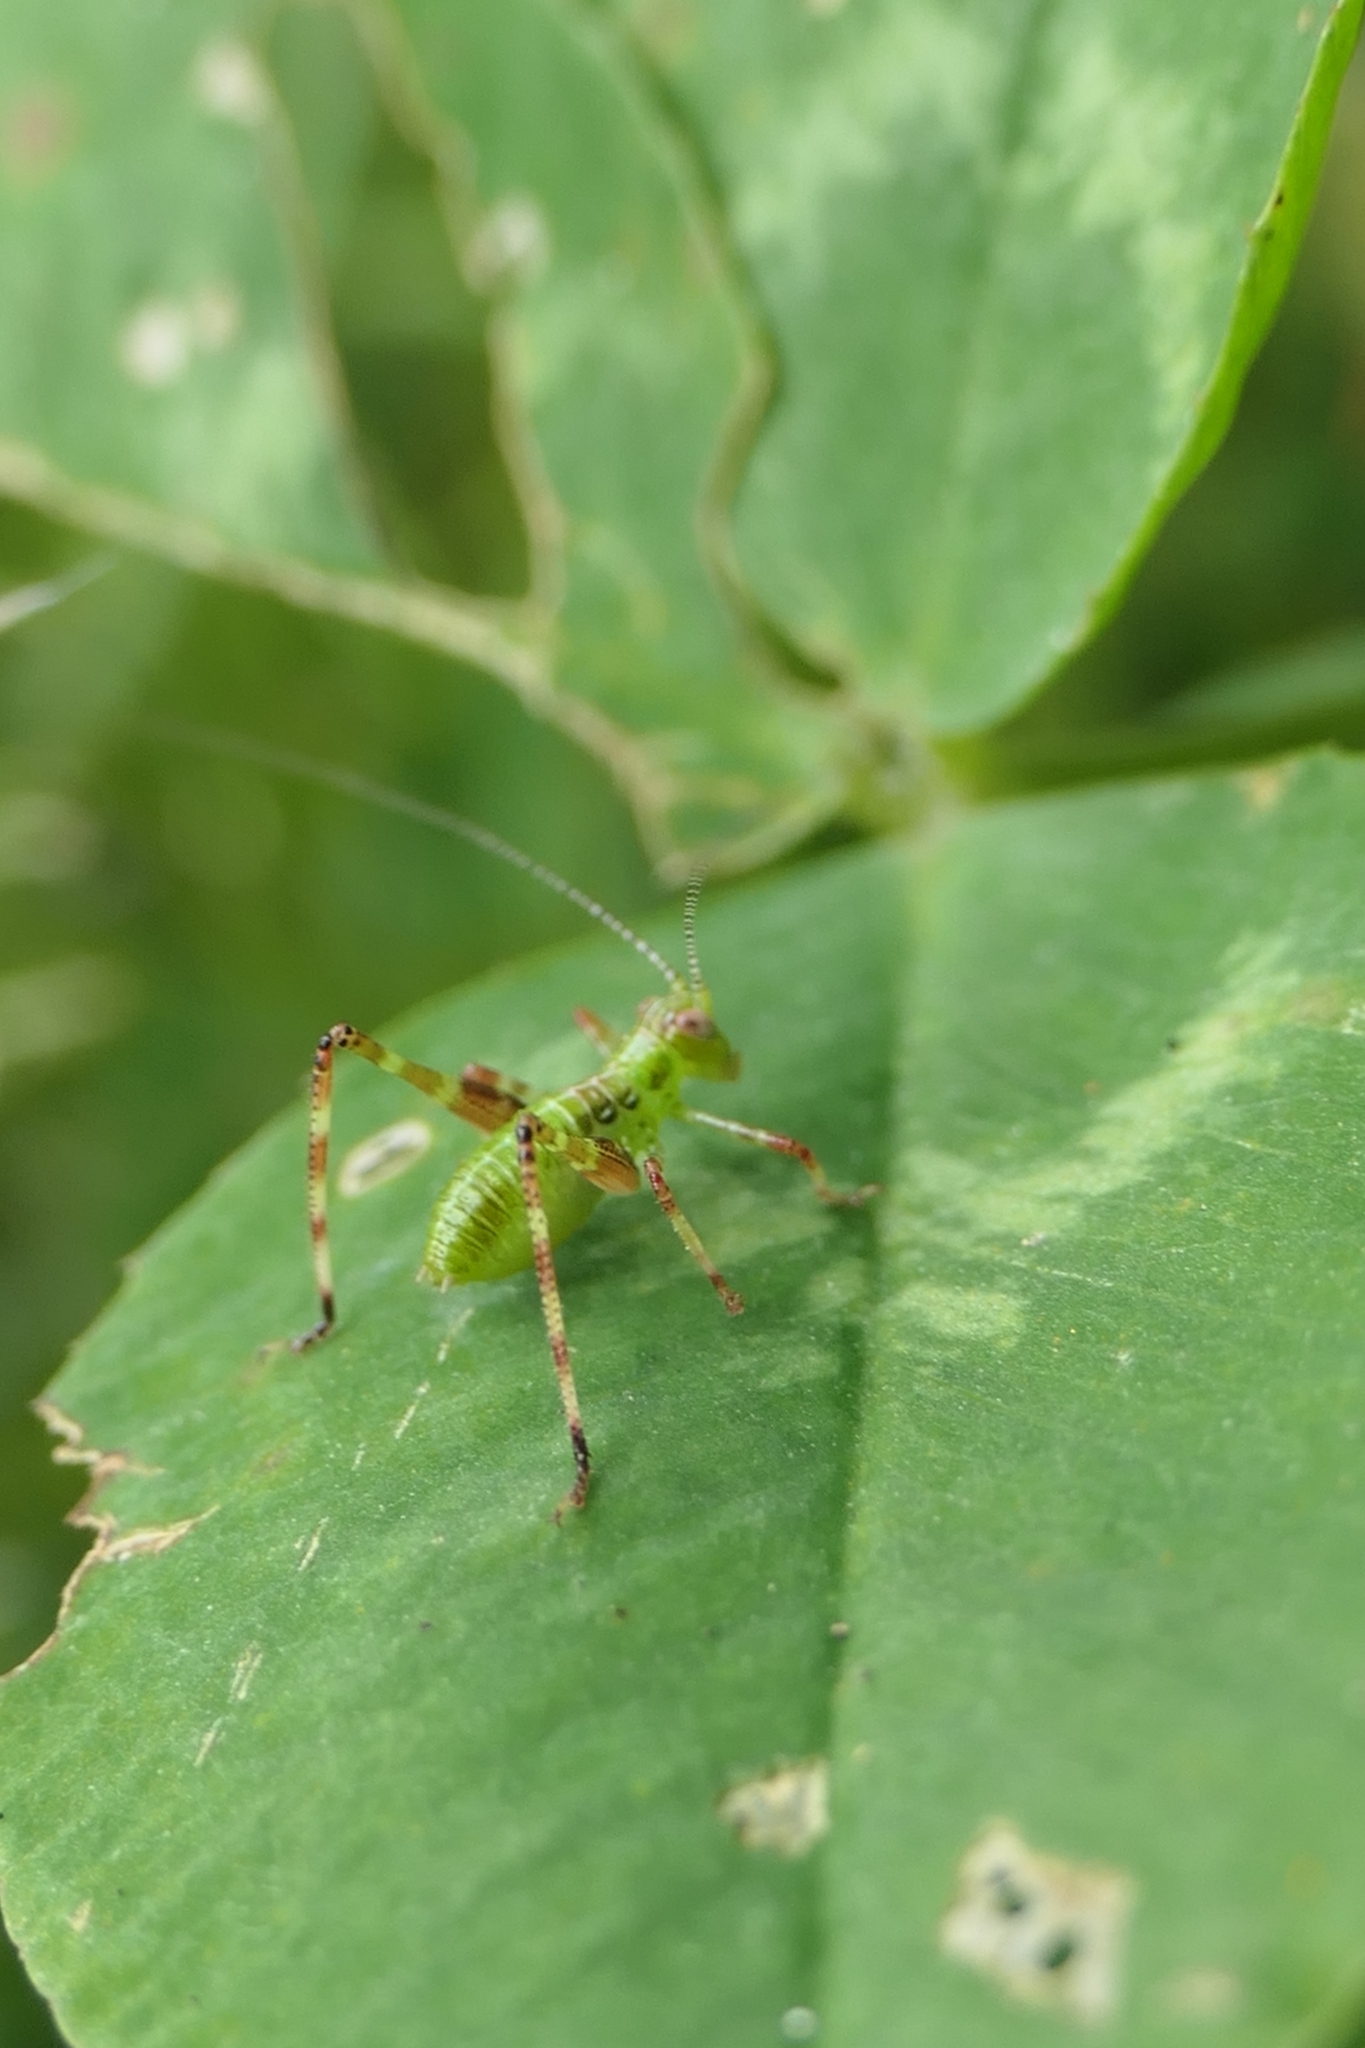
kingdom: Animalia
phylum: Arthropoda
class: Insecta
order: Orthoptera
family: Tettigoniidae
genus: Caedicia
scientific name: Caedicia simplex
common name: Common garden katydid
